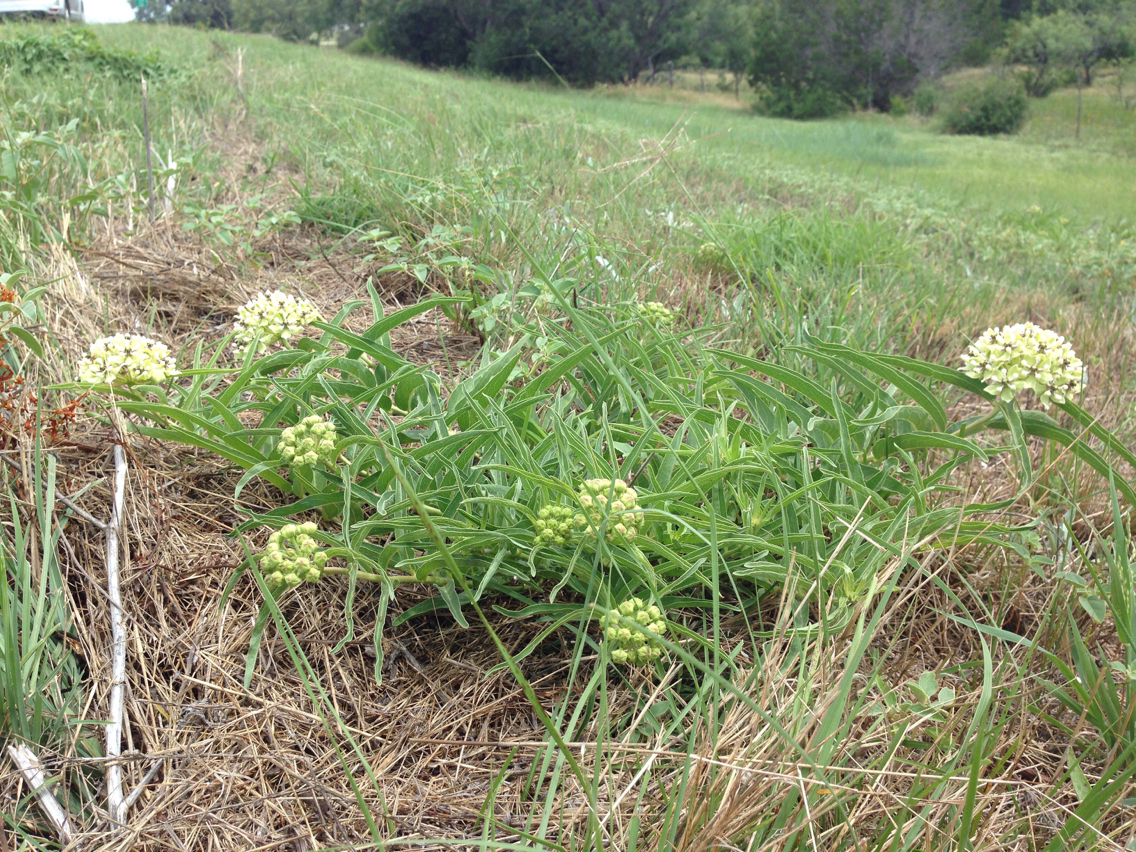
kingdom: Plantae
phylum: Tracheophyta
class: Magnoliopsida
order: Gentianales
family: Apocynaceae
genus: Asclepias
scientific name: Asclepias asperula
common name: Antelope horns
